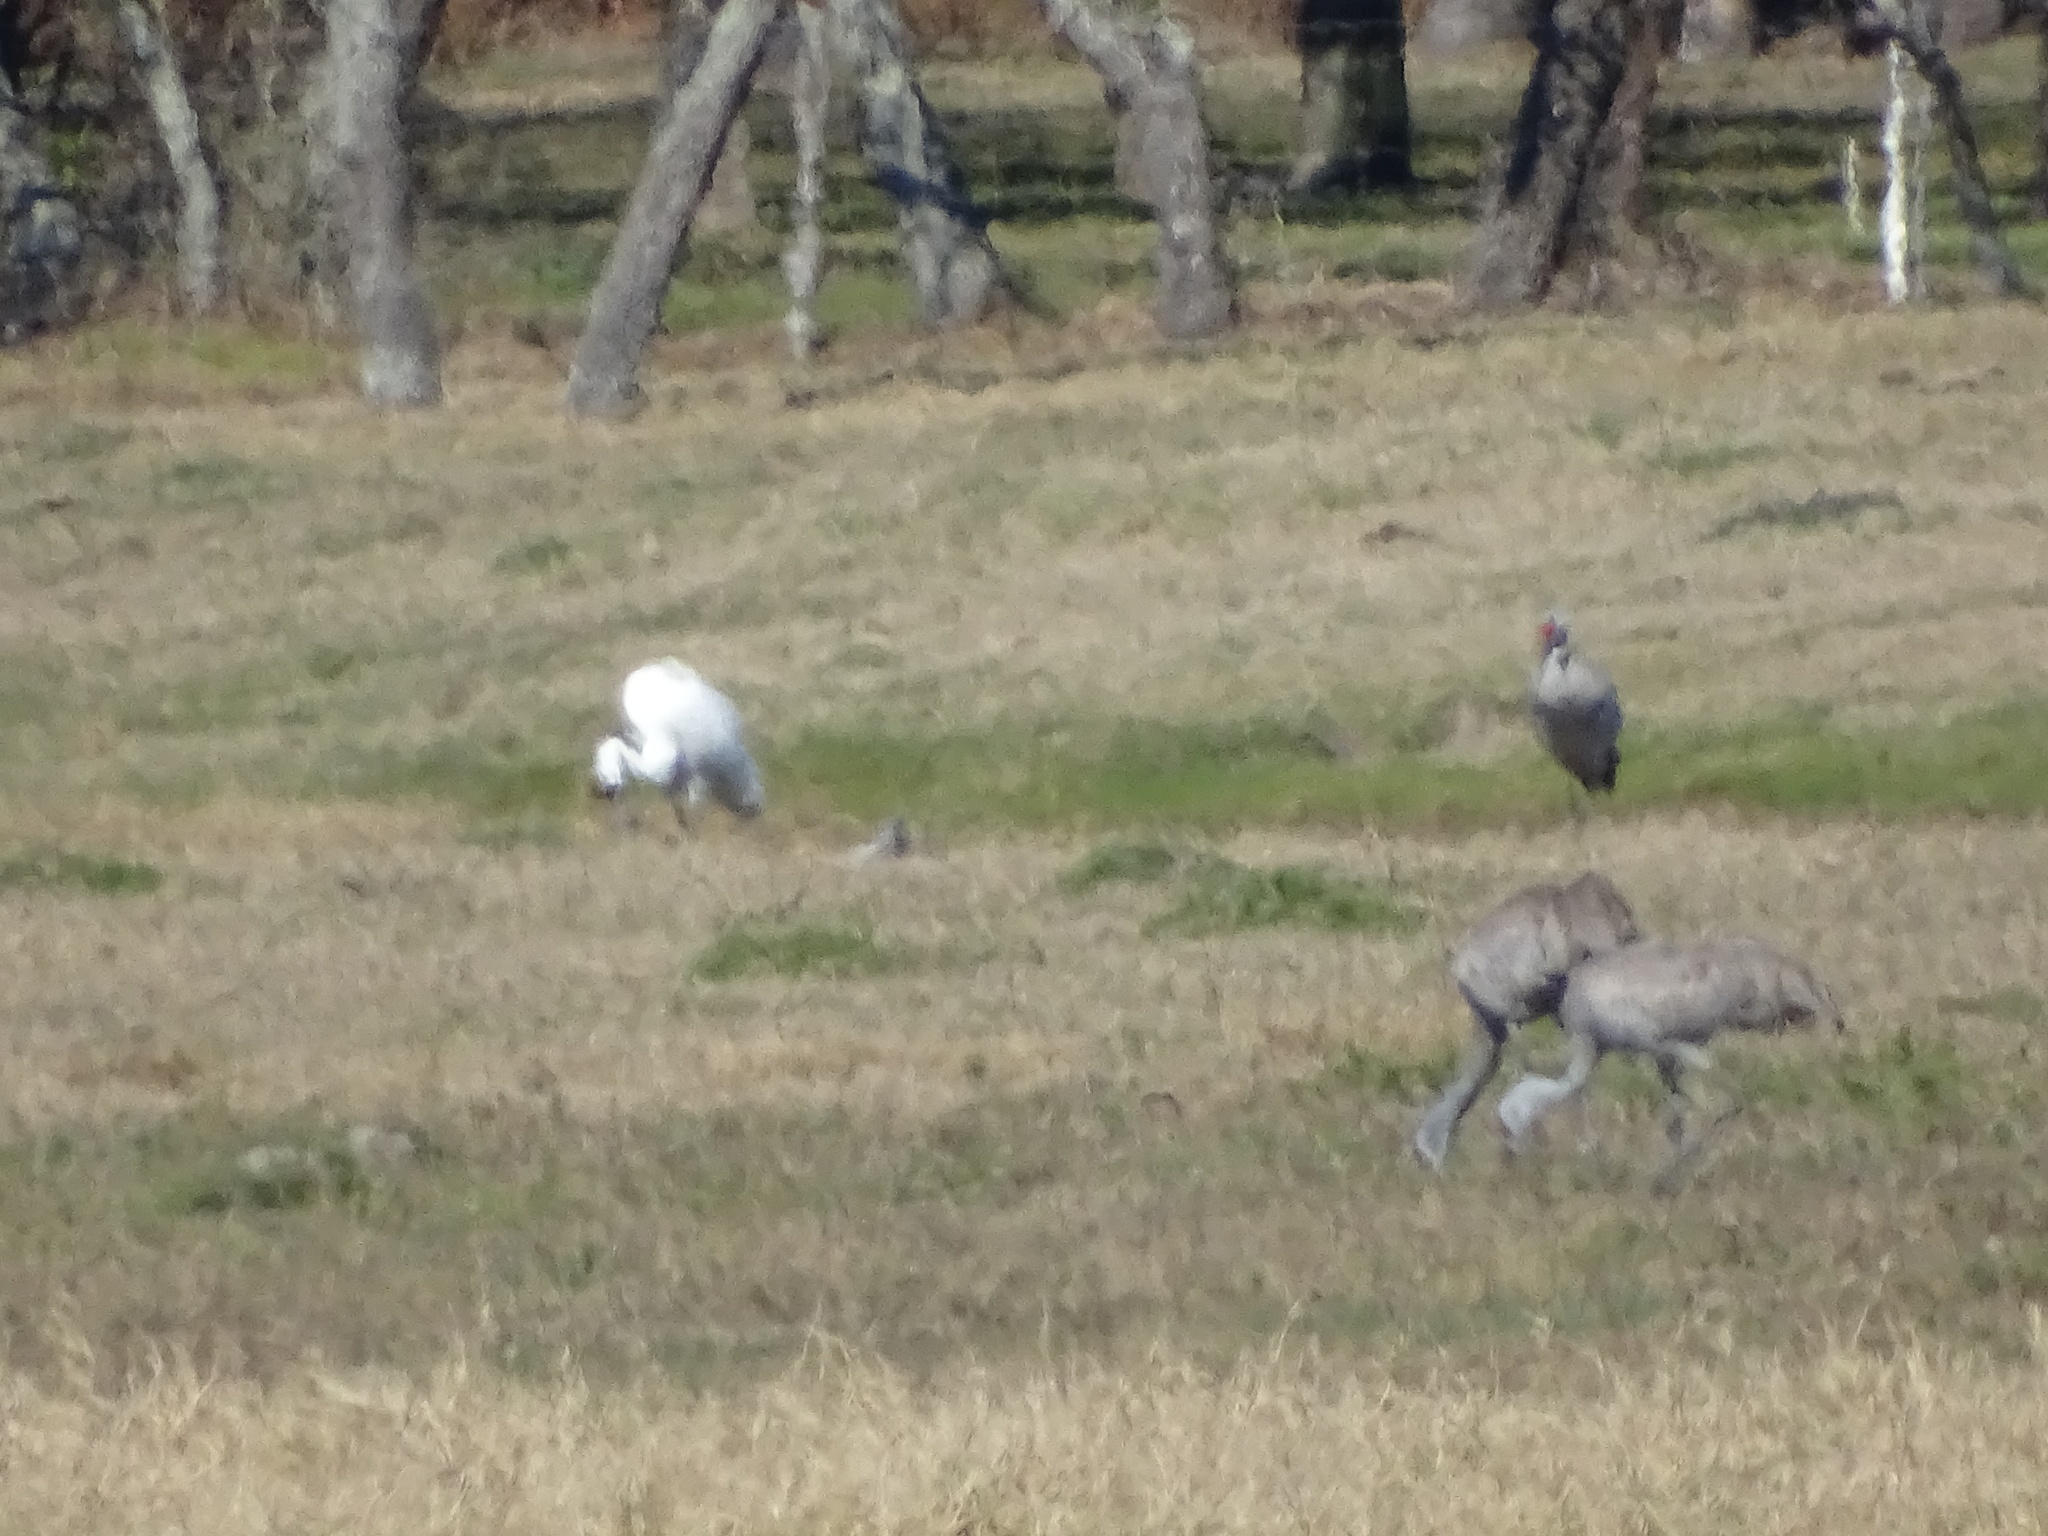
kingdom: Animalia
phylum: Chordata
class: Aves
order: Gruiformes
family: Gruidae
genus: Grus
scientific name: Grus canadensis
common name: Sandhill crane
